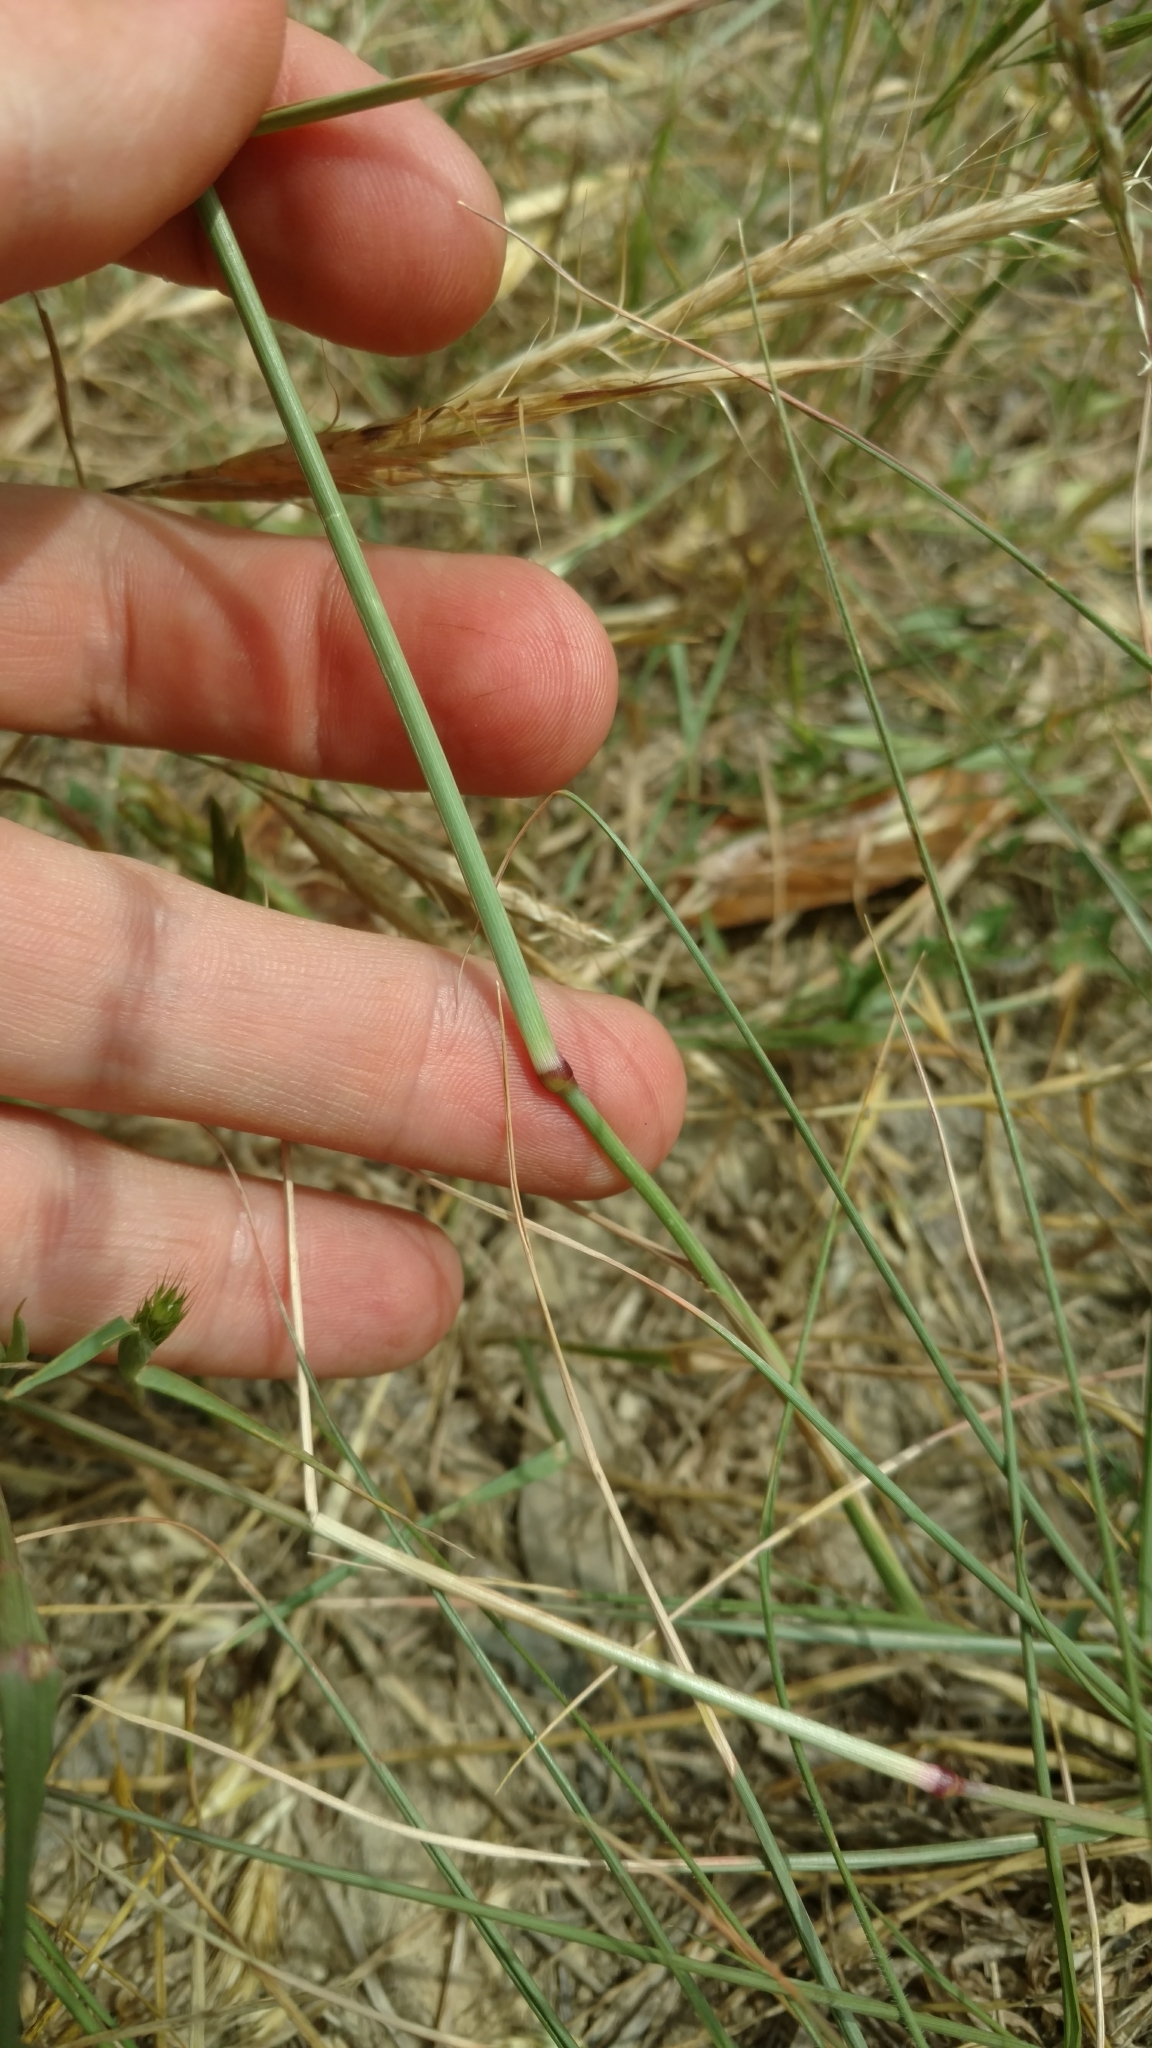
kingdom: Plantae
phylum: Tracheophyta
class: Liliopsida
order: Poales
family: Poaceae
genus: Tridens
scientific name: Tridens albescens
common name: White tridens
